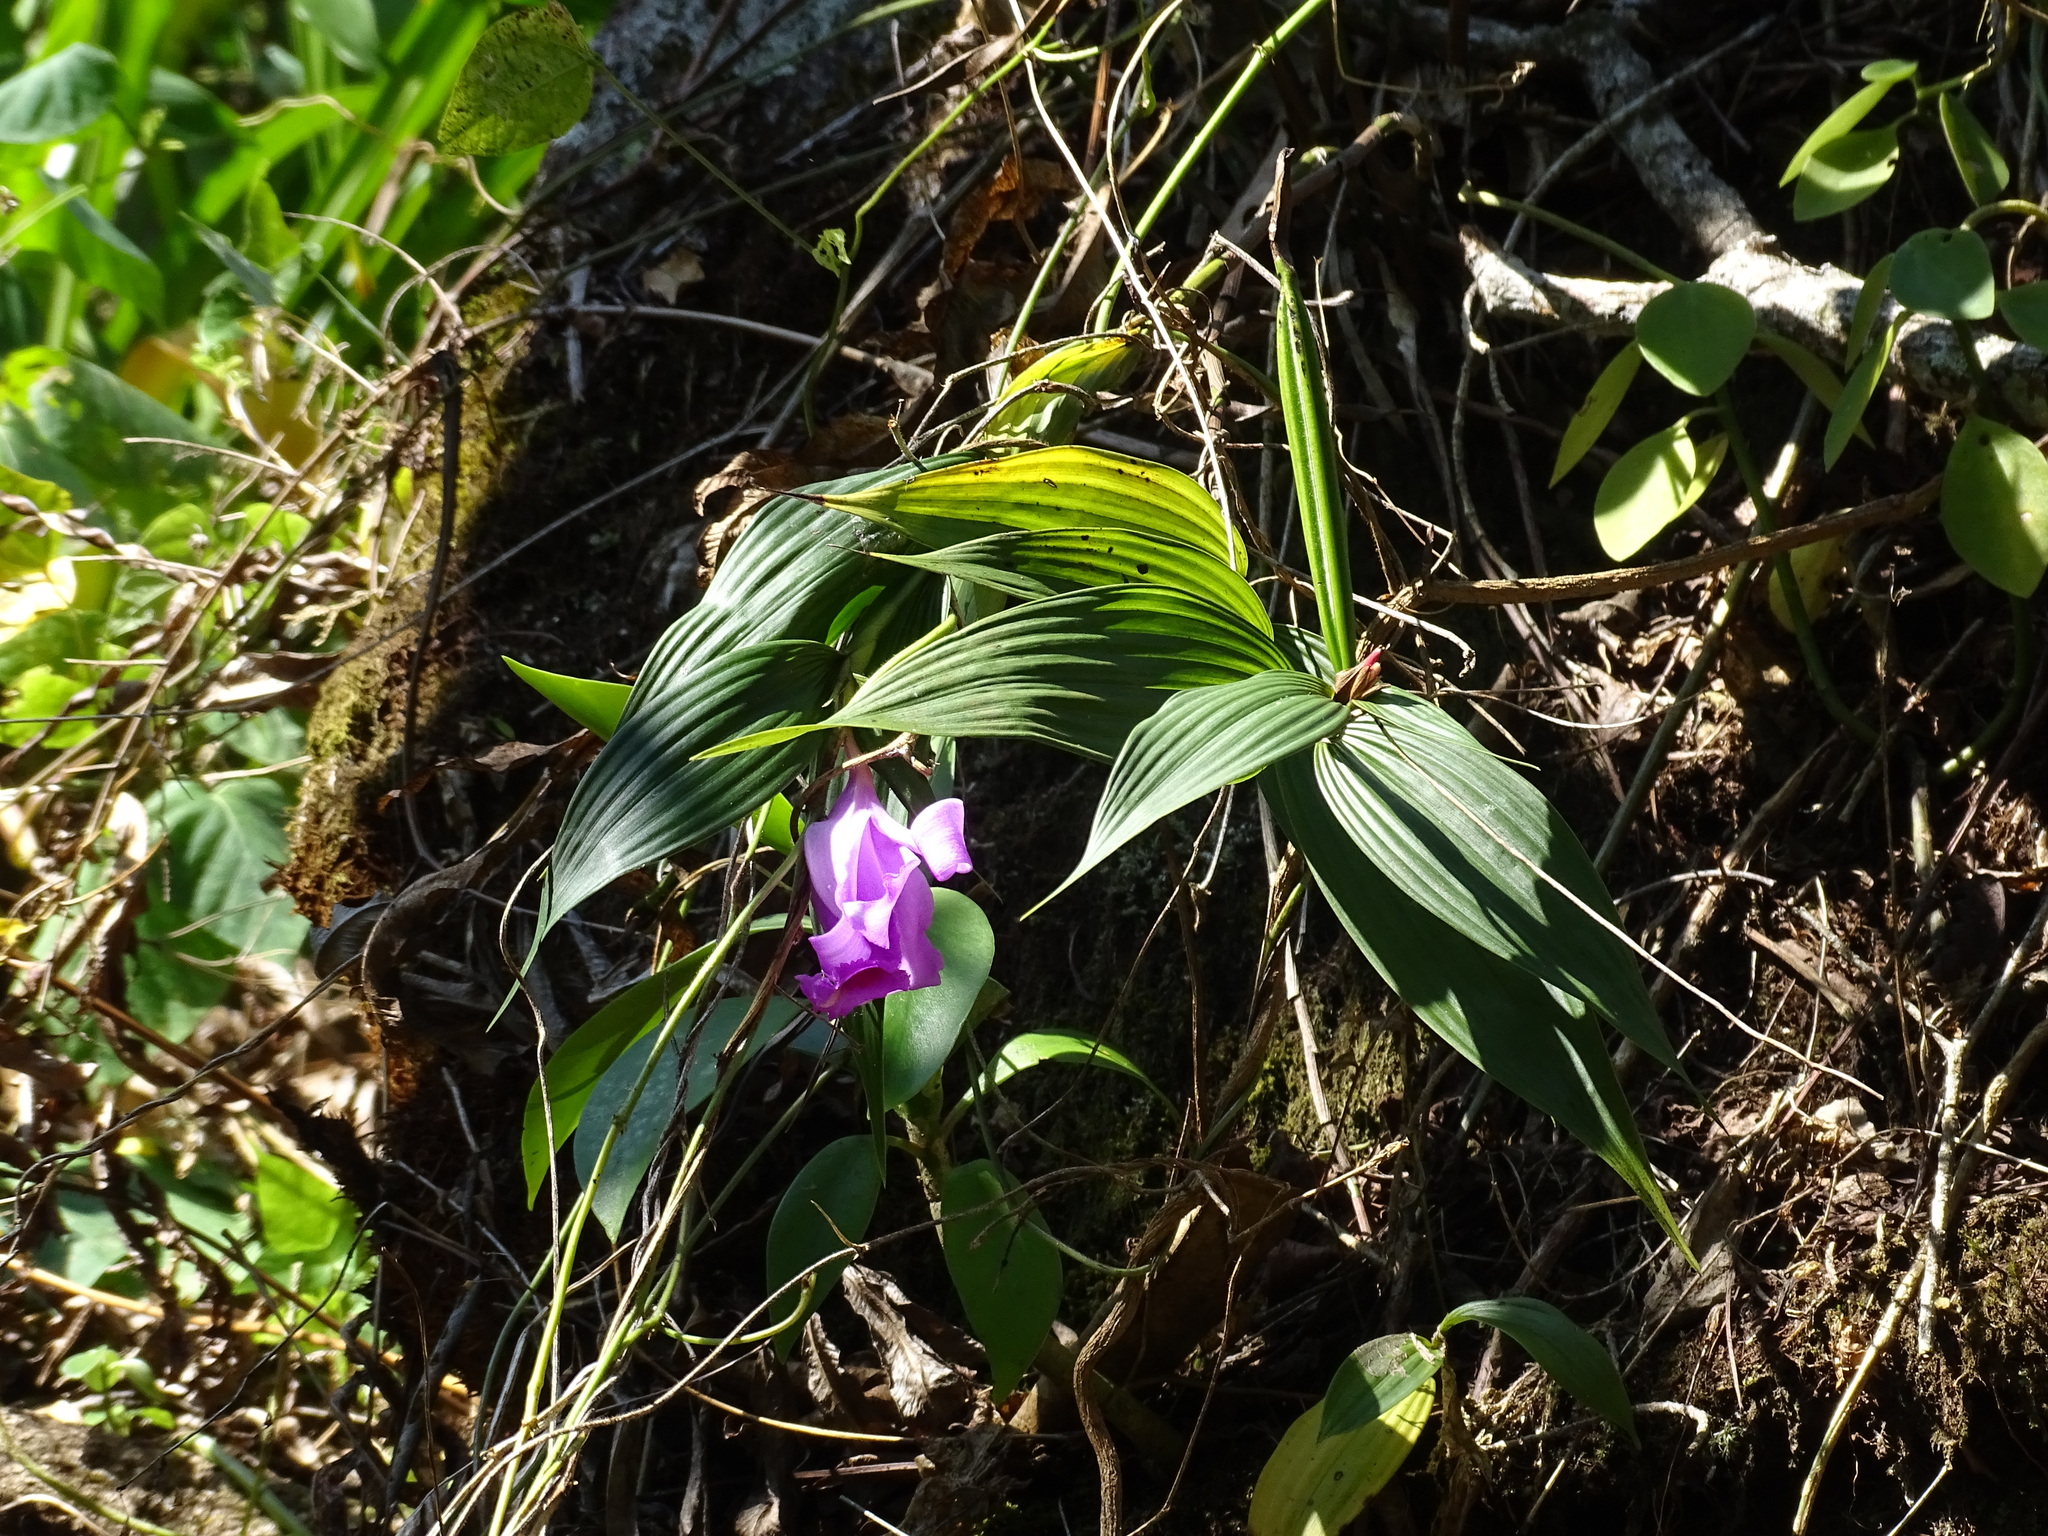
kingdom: Plantae
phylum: Tracheophyta
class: Liliopsida
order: Asparagales
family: Orchidaceae
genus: Sobralia
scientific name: Sobralia macdougallii
